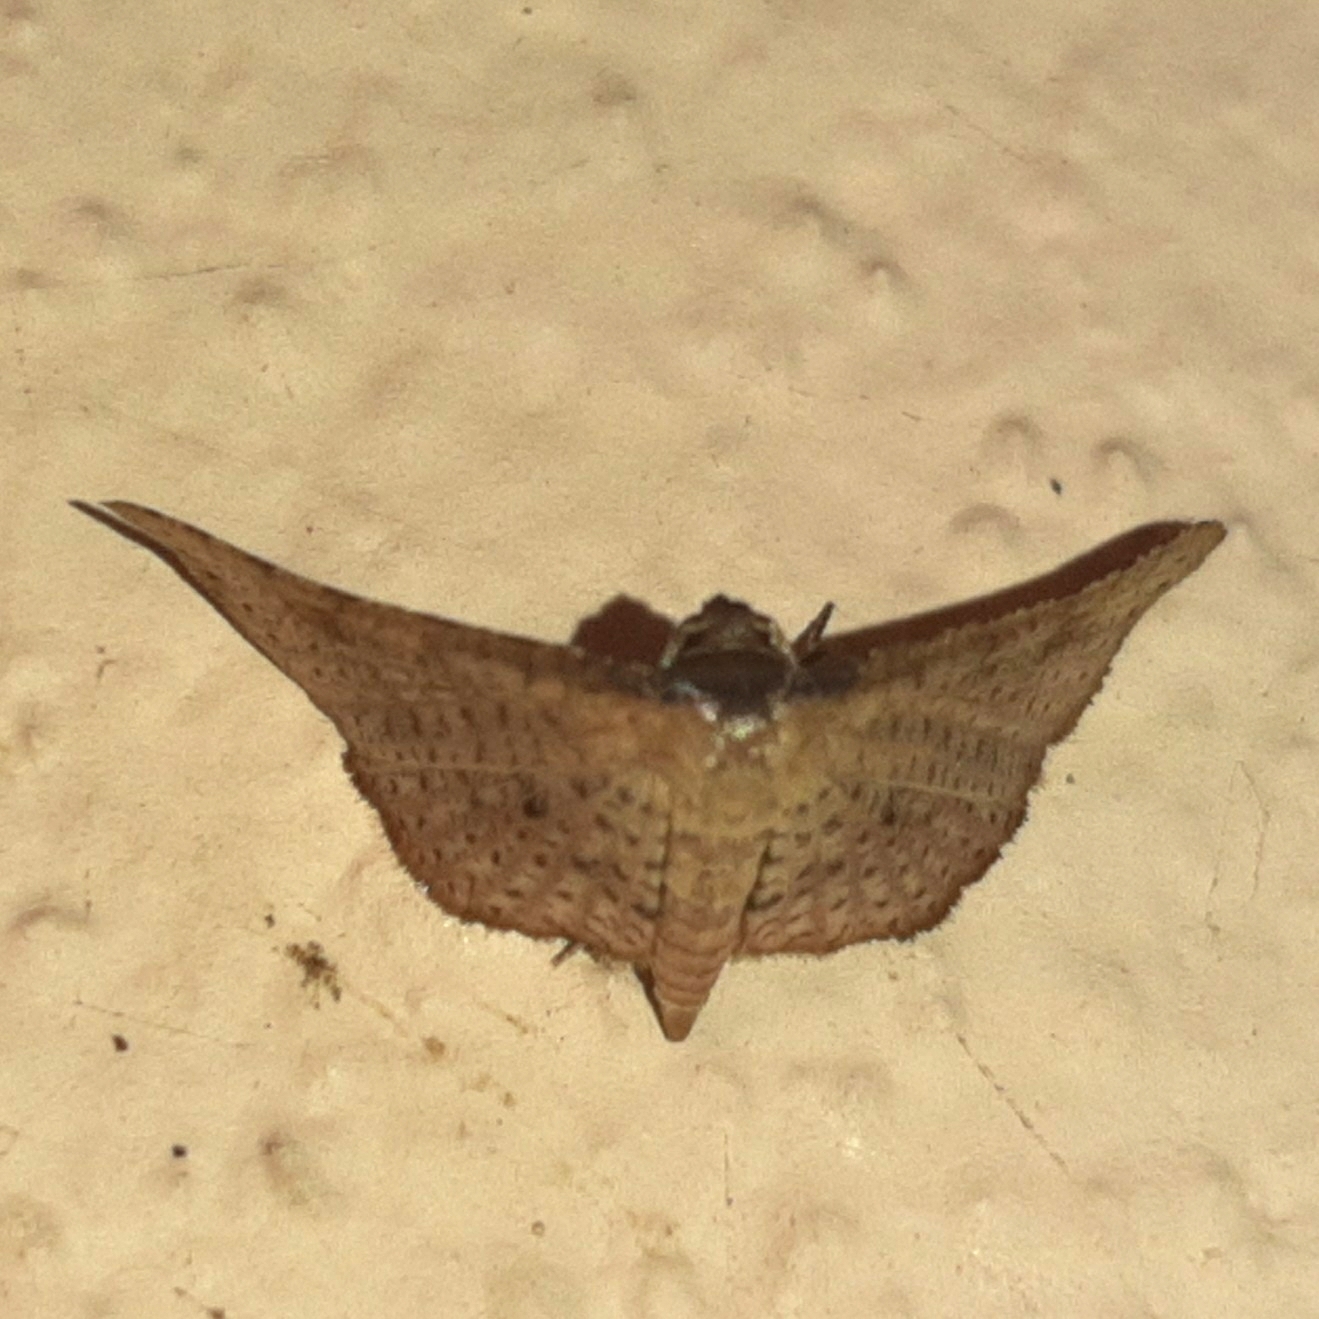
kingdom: Animalia
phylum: Arthropoda
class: Insecta
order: Lepidoptera
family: Thyrididae
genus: Rhodoneura
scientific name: Rhodoneura thiastoralis
